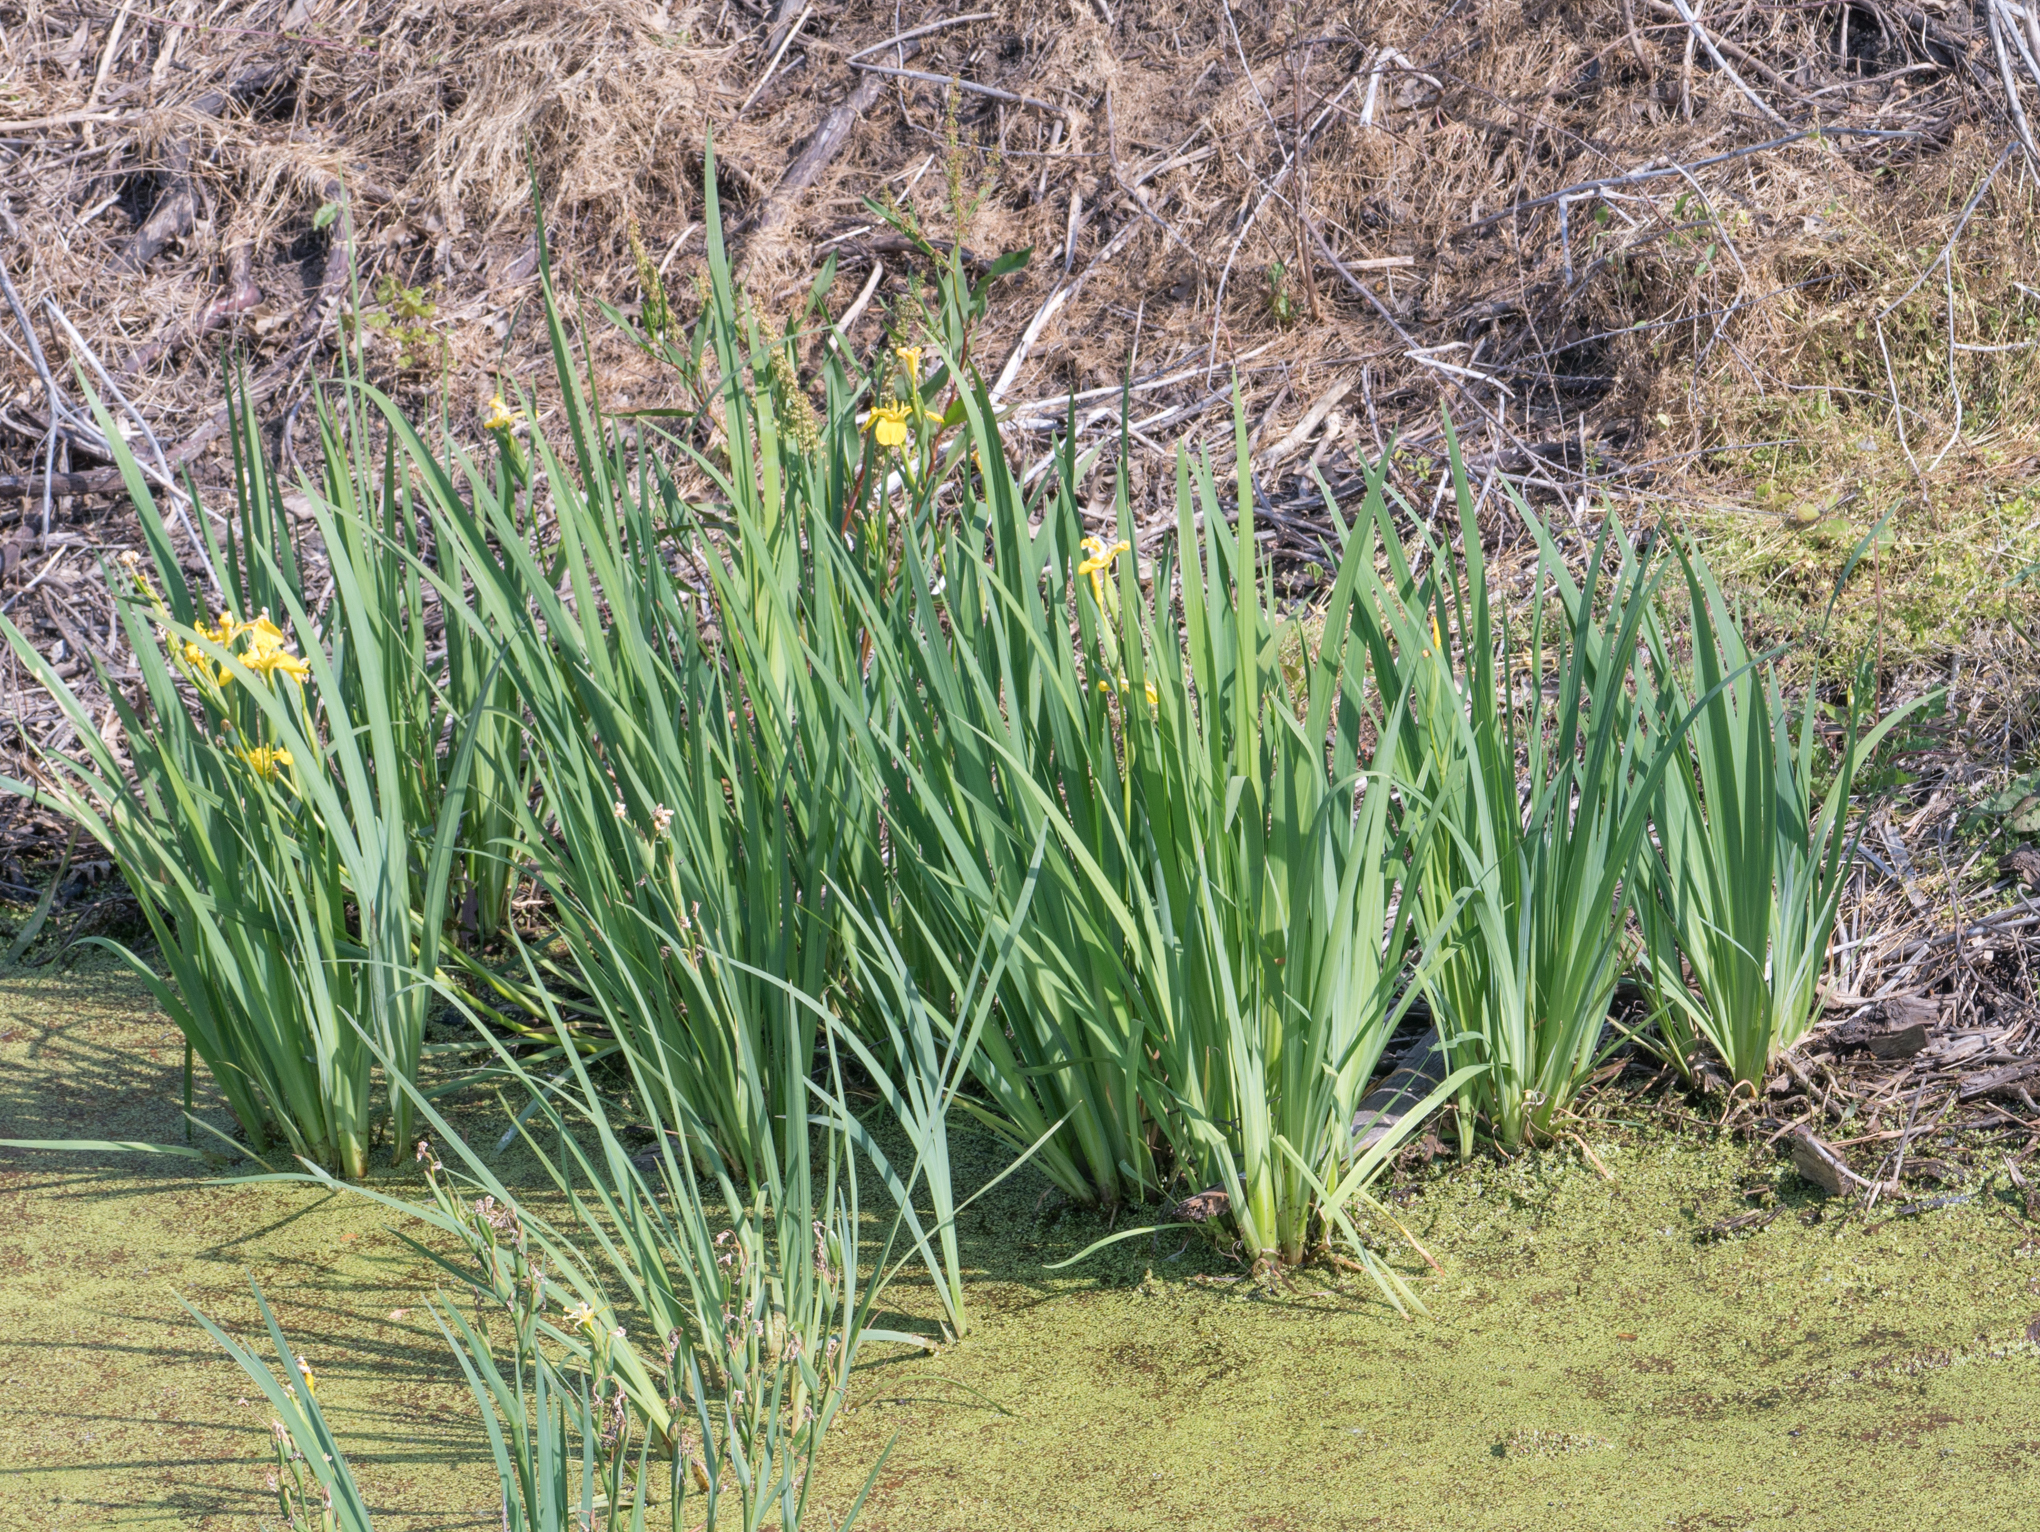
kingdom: Plantae
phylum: Tracheophyta
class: Liliopsida
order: Asparagales
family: Iridaceae
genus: Iris
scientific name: Iris pseudacorus
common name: Yellow flag
